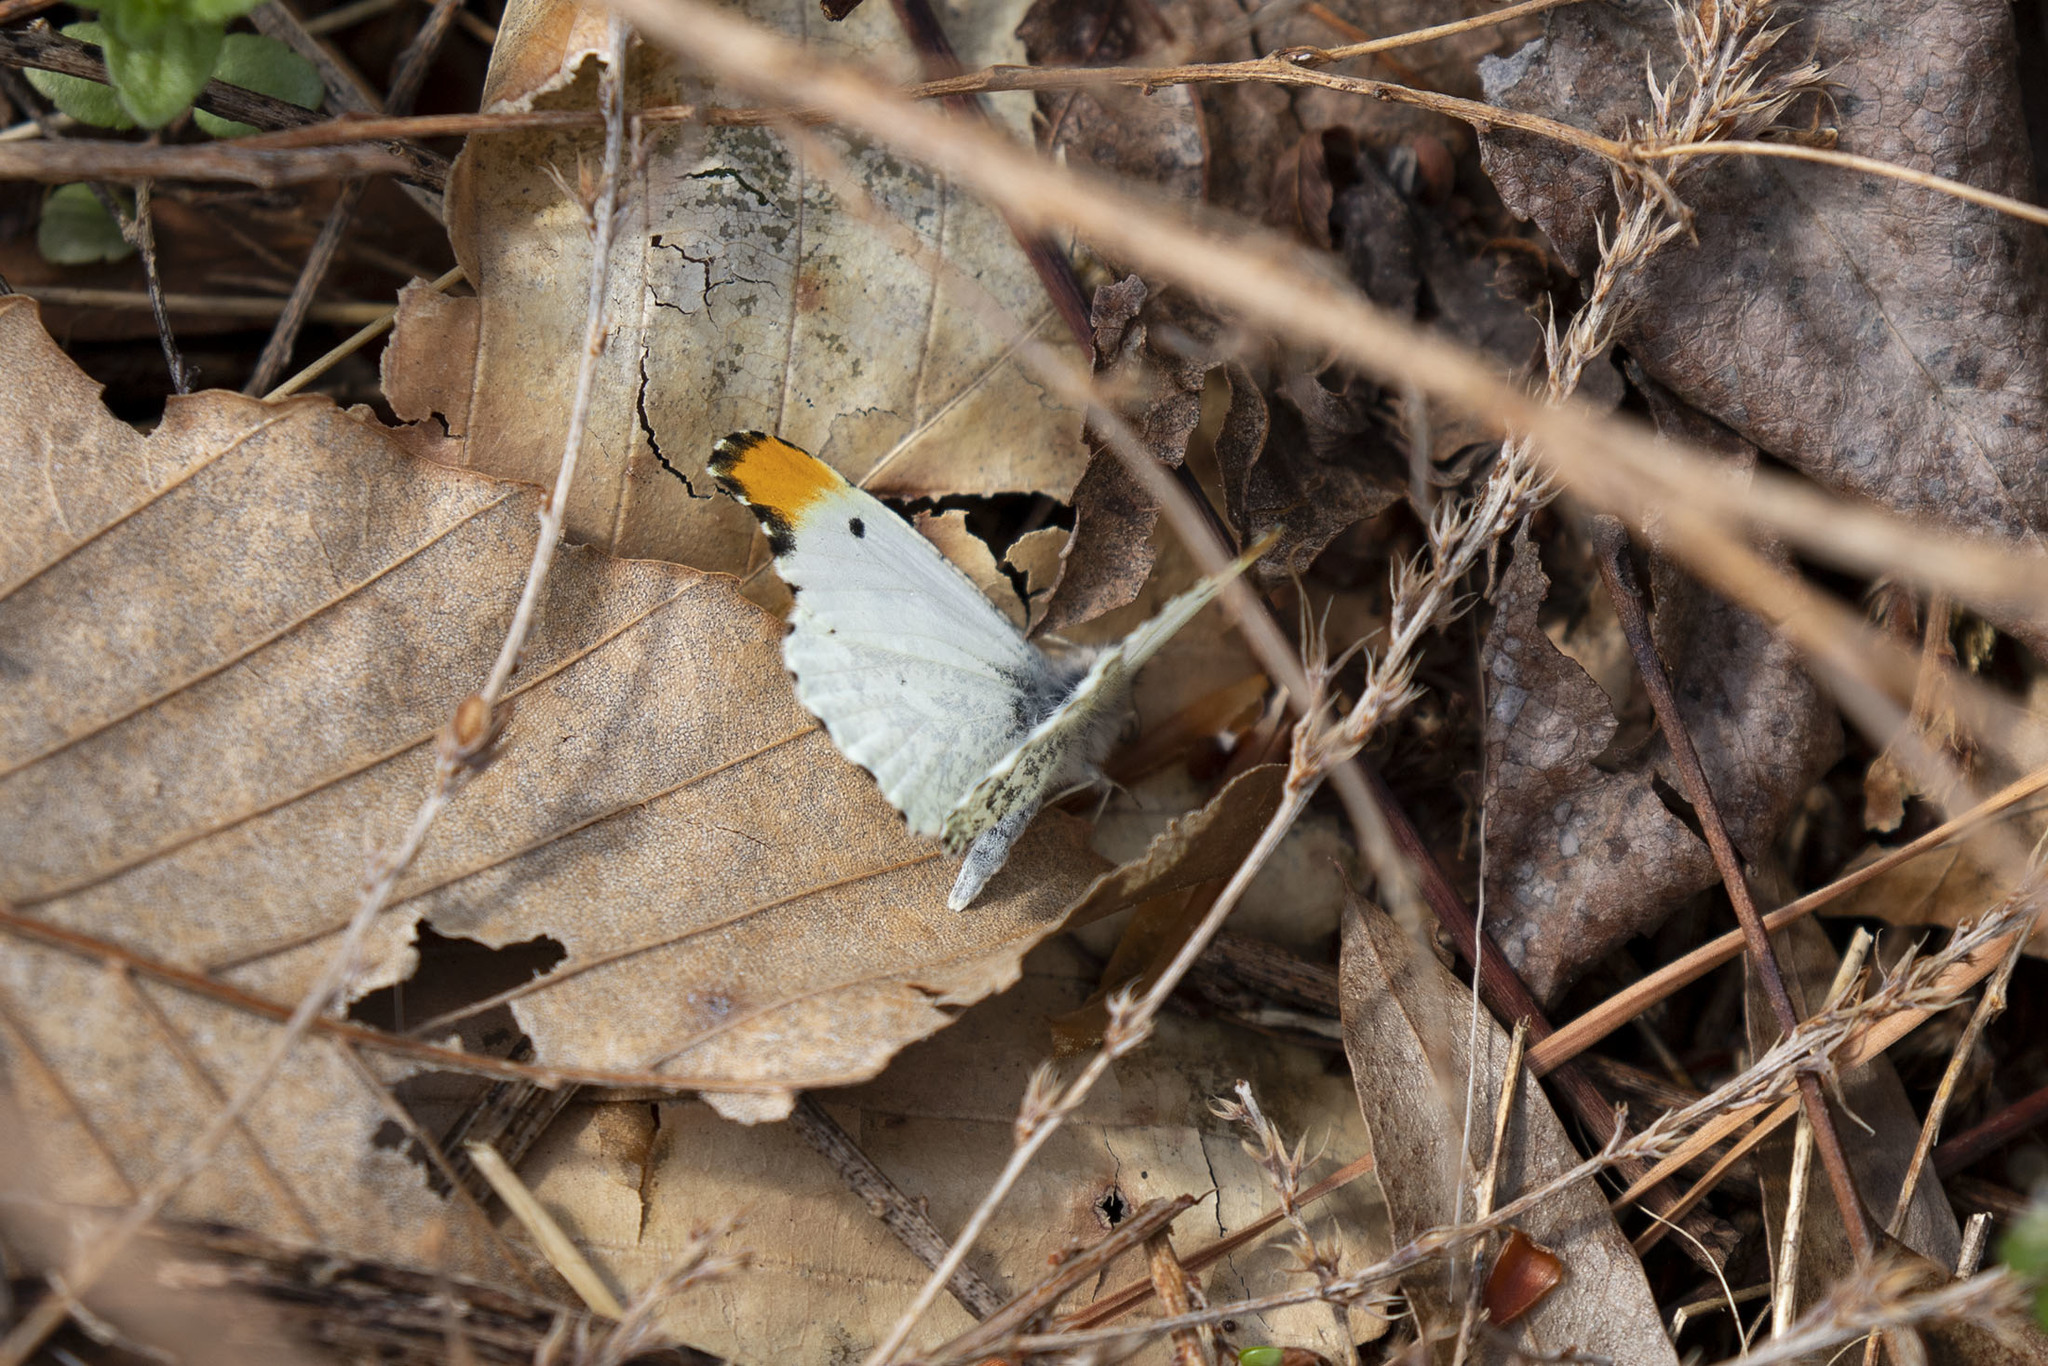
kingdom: Animalia
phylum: Arthropoda
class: Insecta
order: Lepidoptera
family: Pieridae
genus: Anthocharis
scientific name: Anthocharis midea
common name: Falcate orangetip
